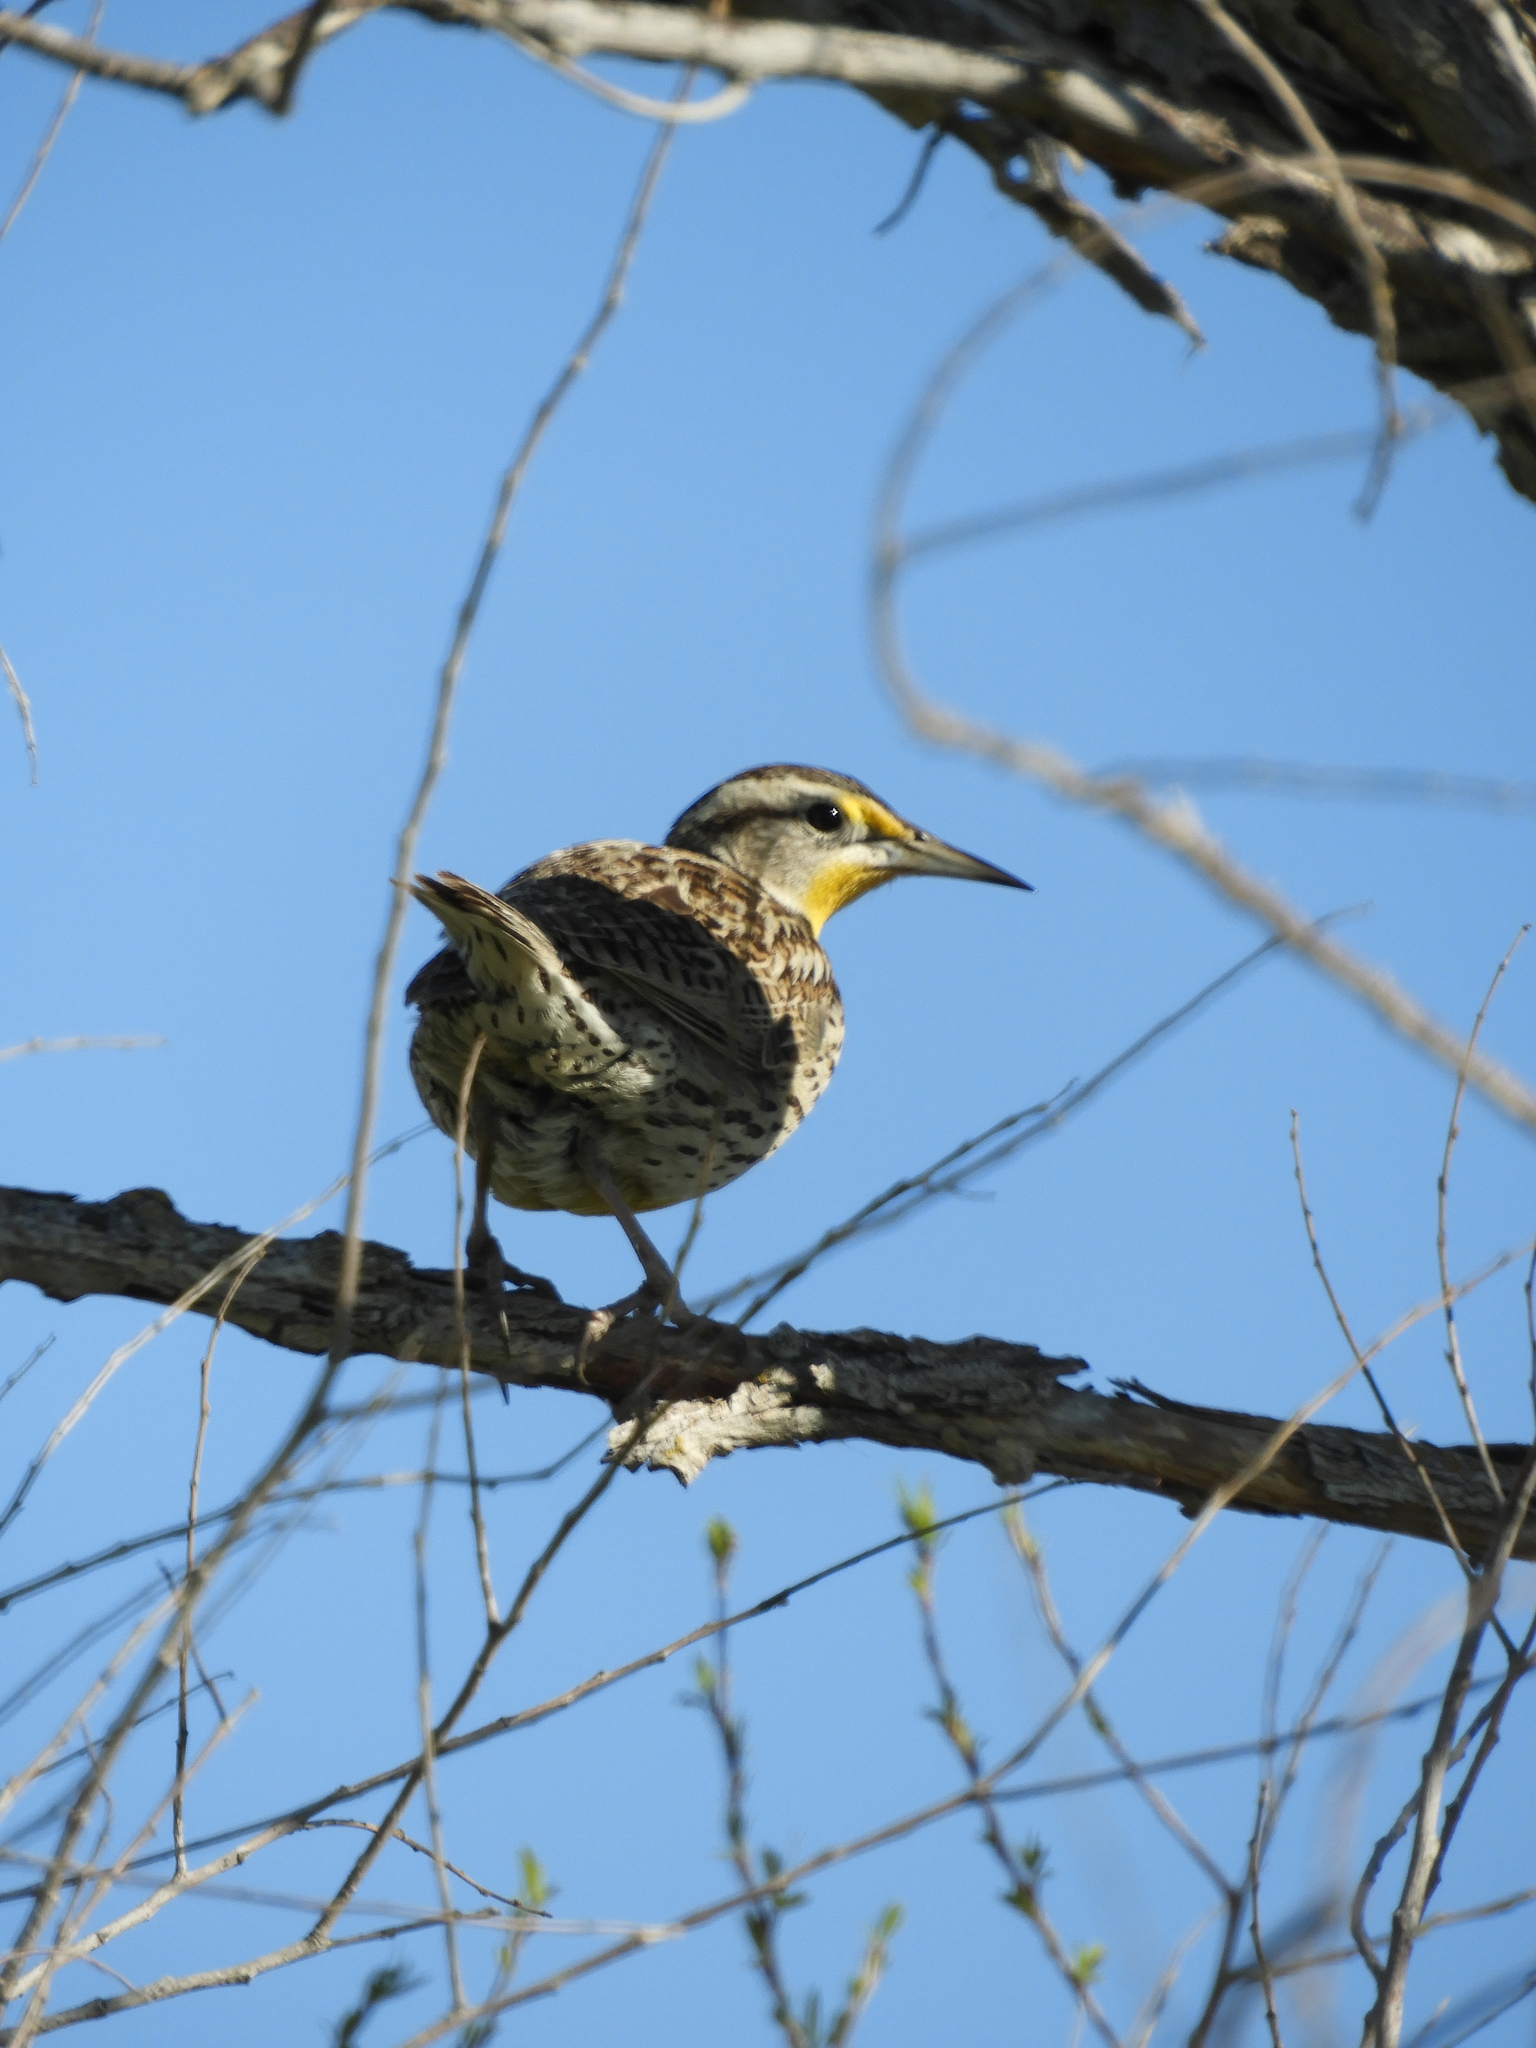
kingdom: Animalia
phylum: Chordata
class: Aves
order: Passeriformes
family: Icteridae
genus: Sturnella
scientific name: Sturnella neglecta
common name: Western meadowlark
